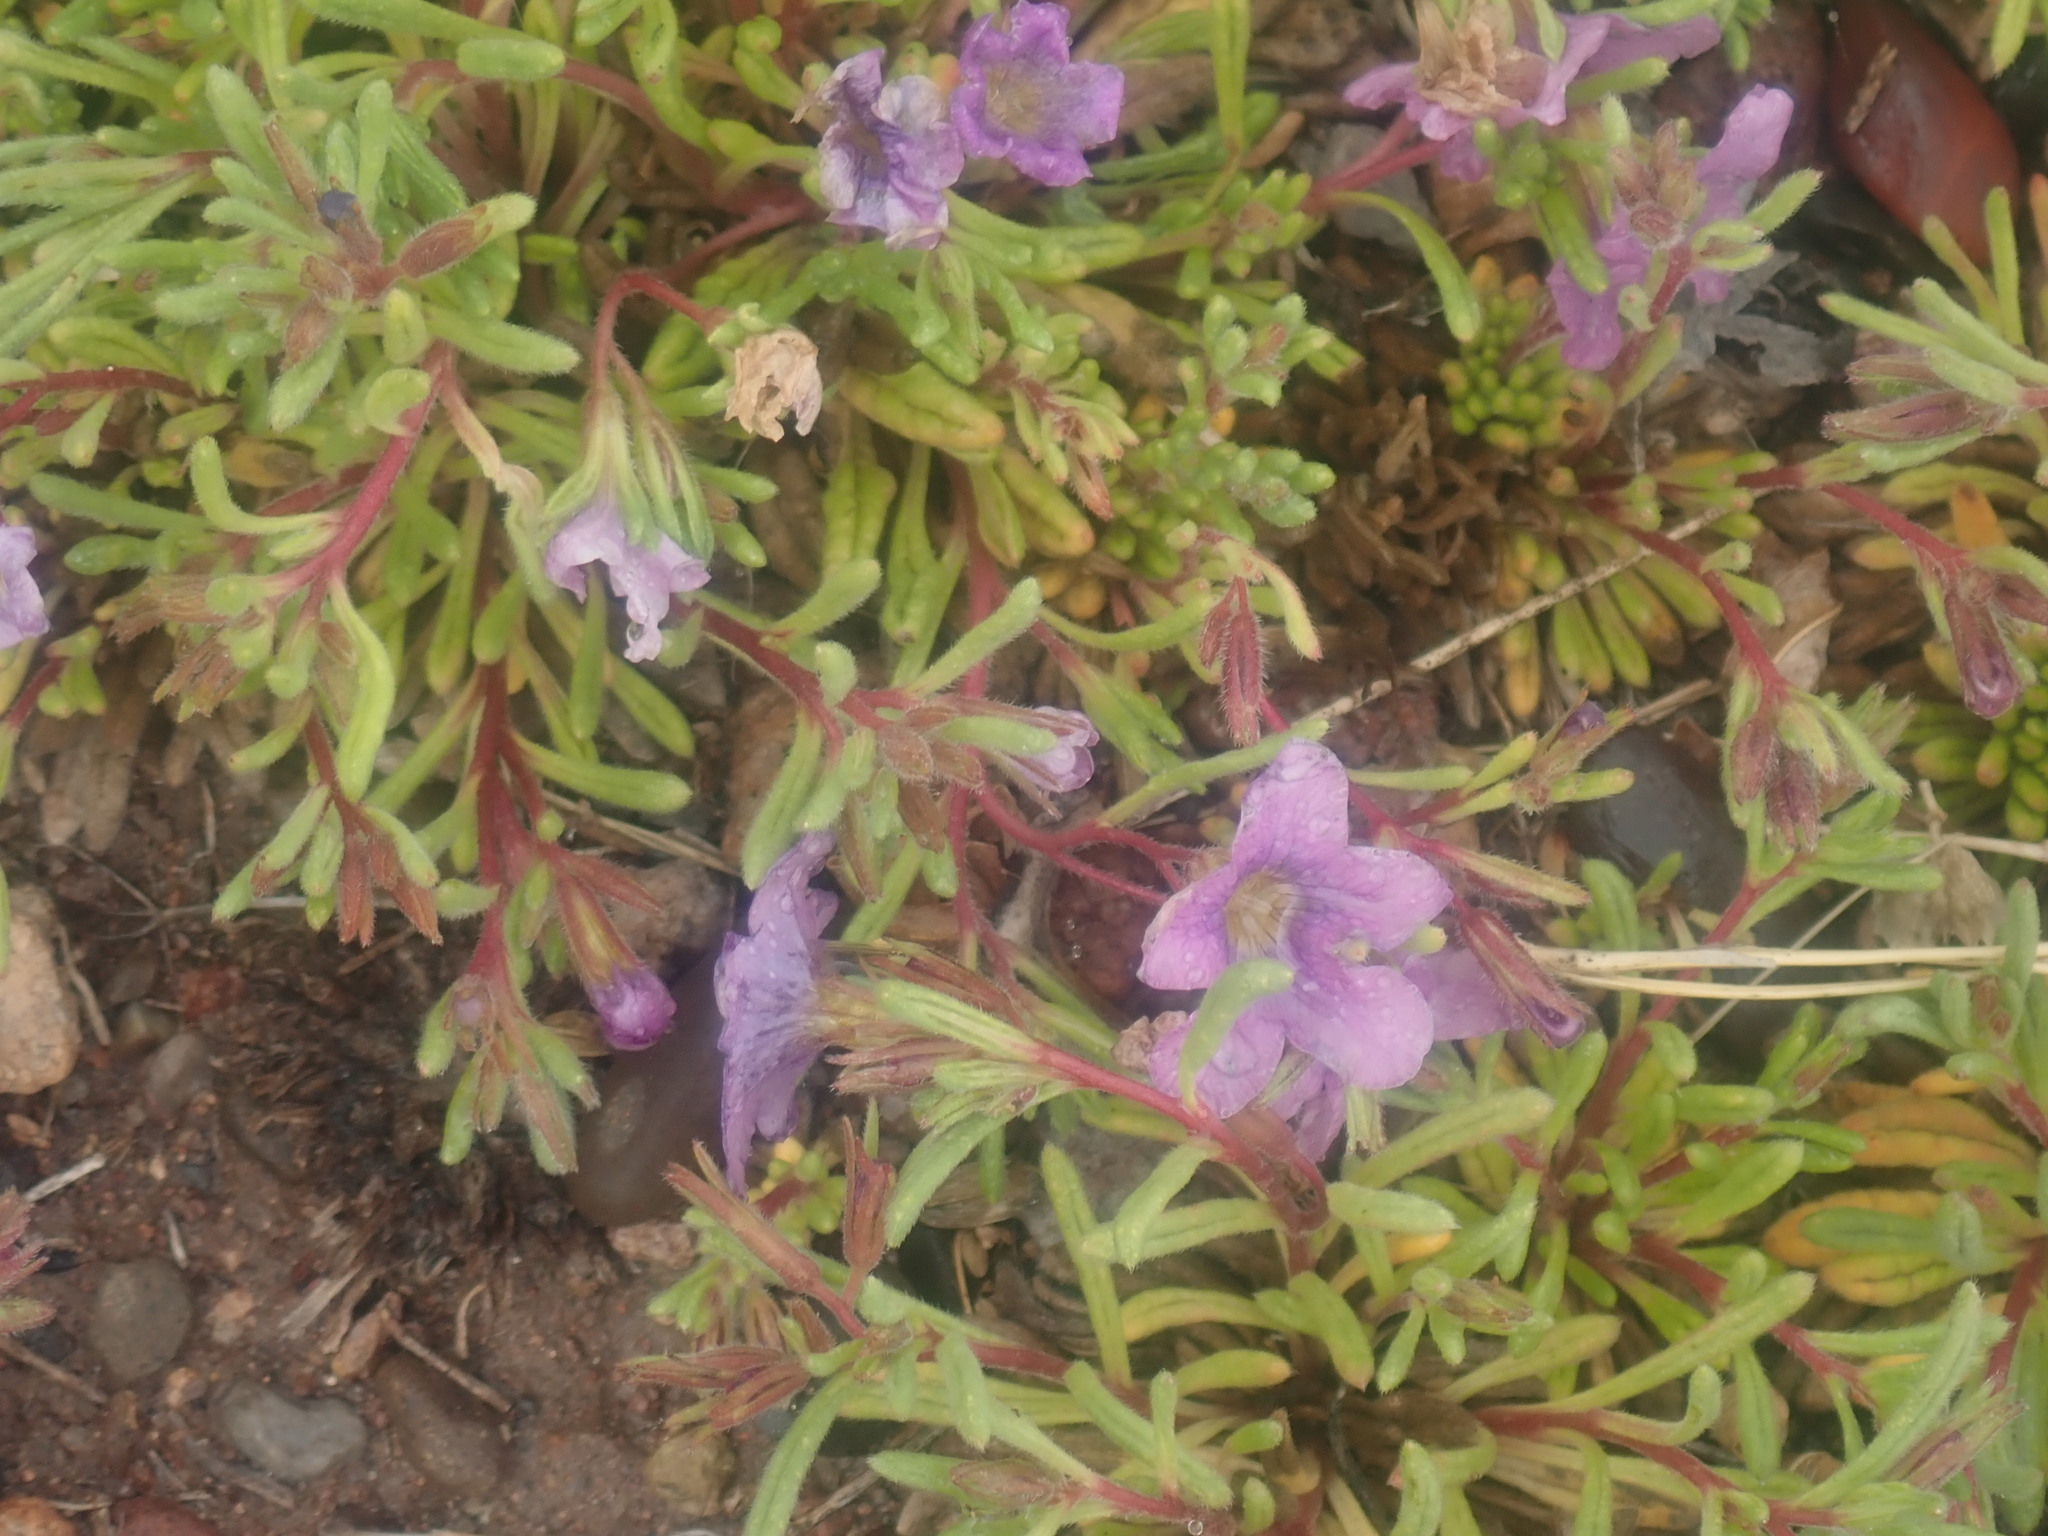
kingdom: Plantae
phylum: Tracheophyta
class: Magnoliopsida
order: Boraginales
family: Namaceae
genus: Nama
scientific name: Nama hispida
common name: Bristly nama
